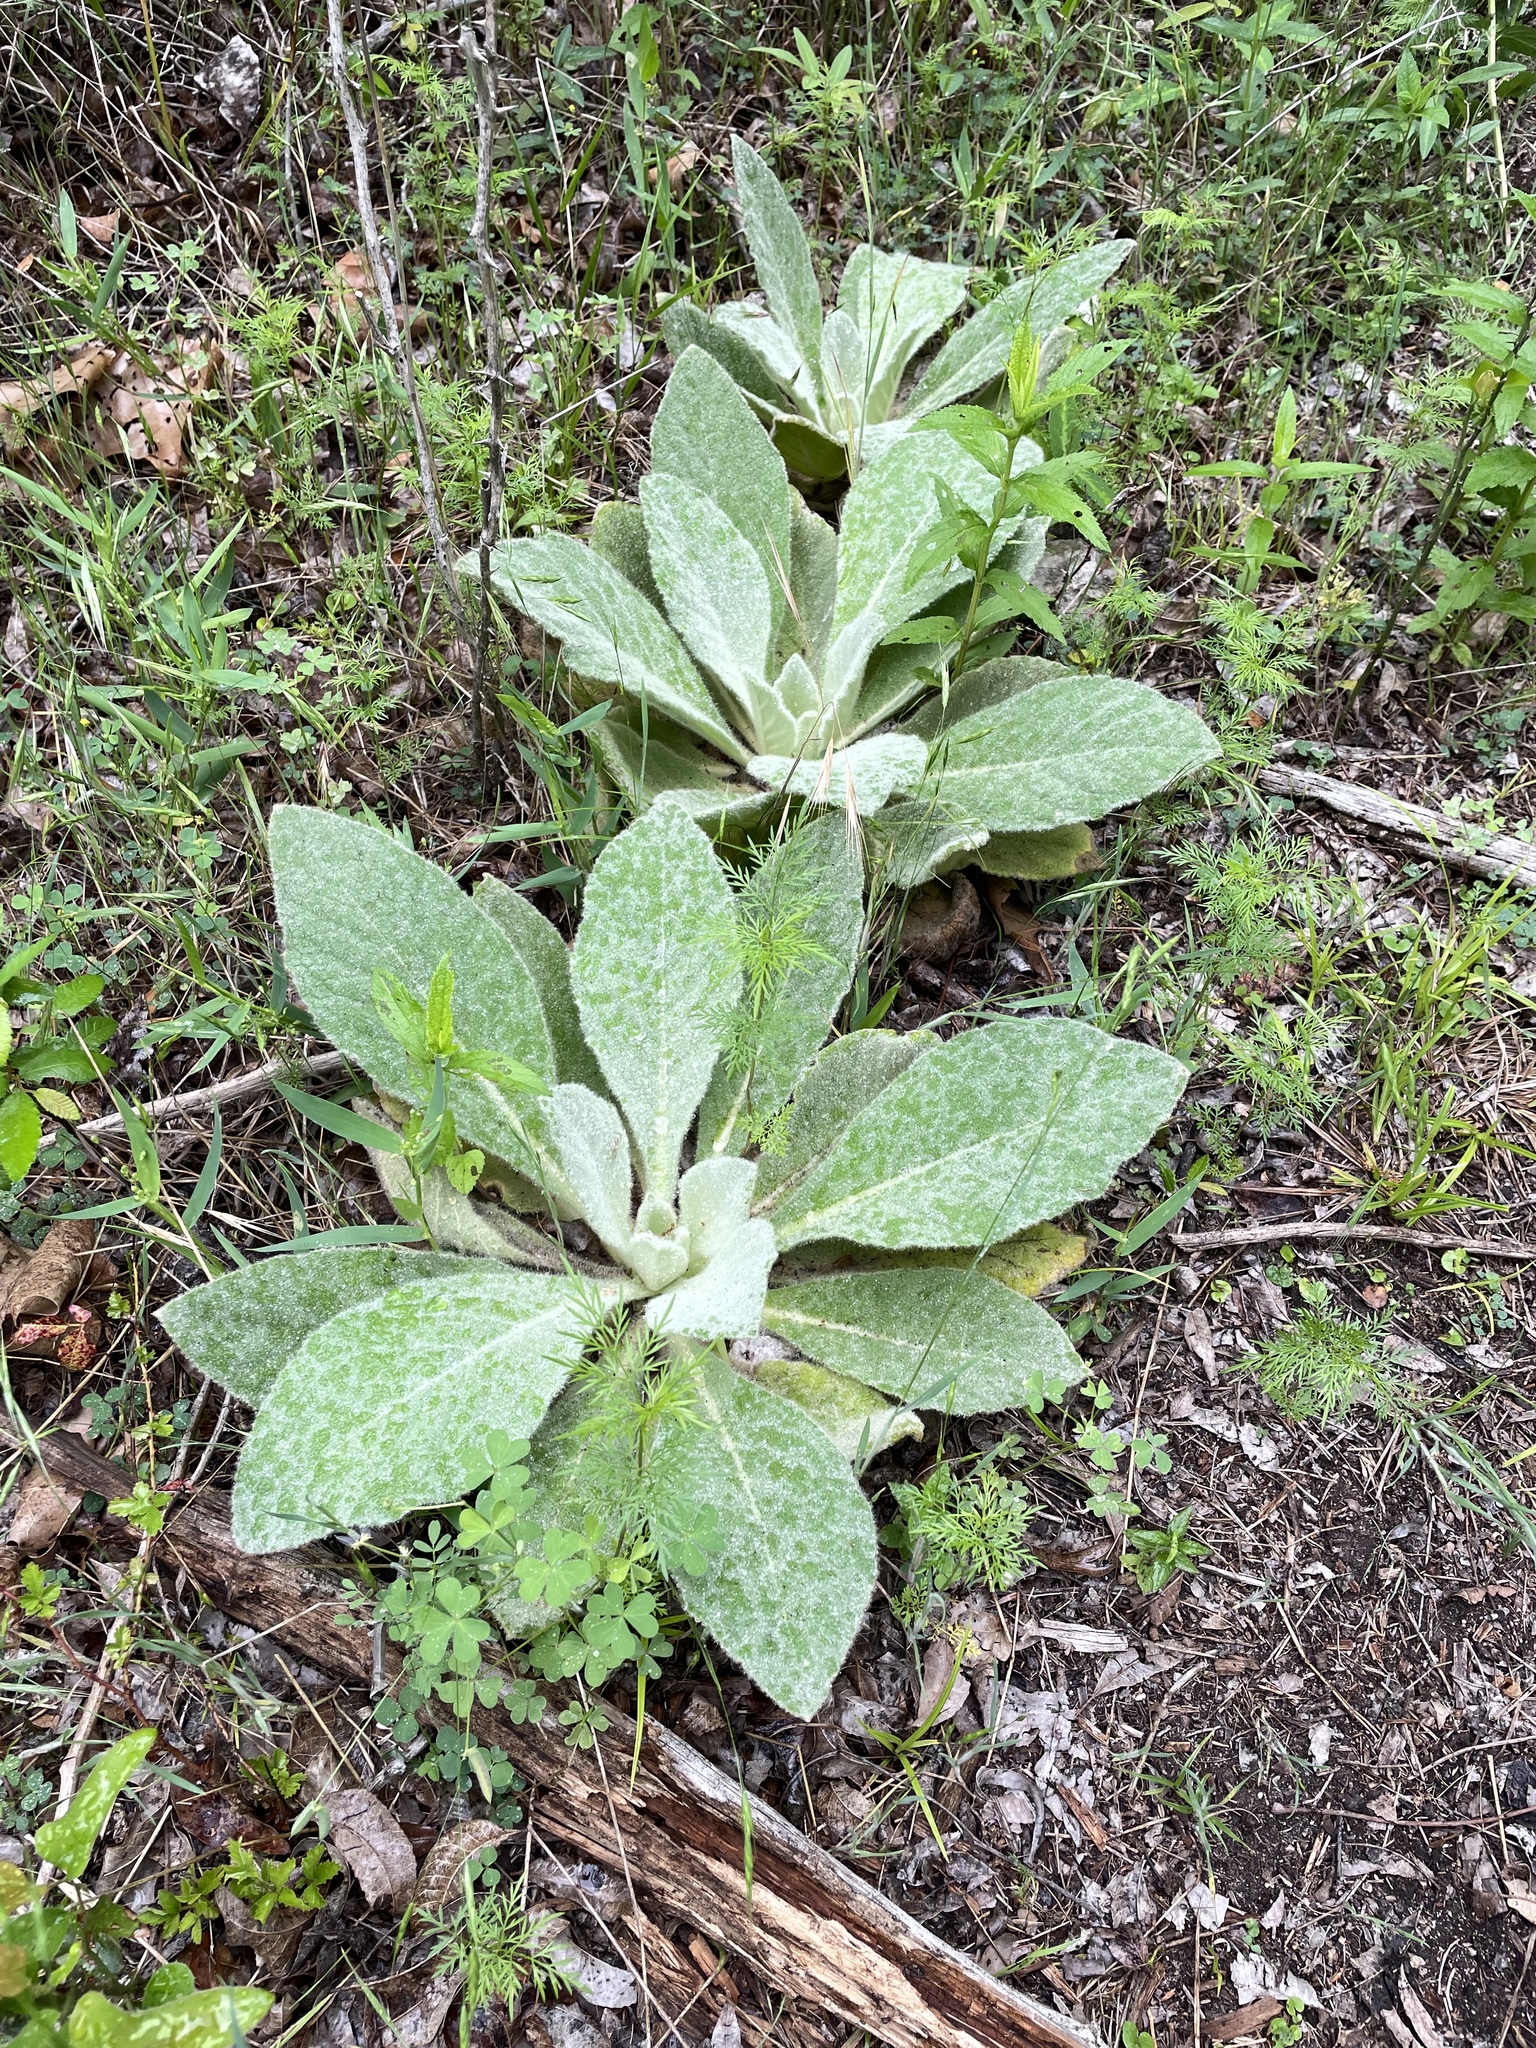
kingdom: Plantae
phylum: Tracheophyta
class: Magnoliopsida
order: Lamiales
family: Scrophulariaceae
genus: Verbascum
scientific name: Verbascum thapsus
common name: Common mullein
